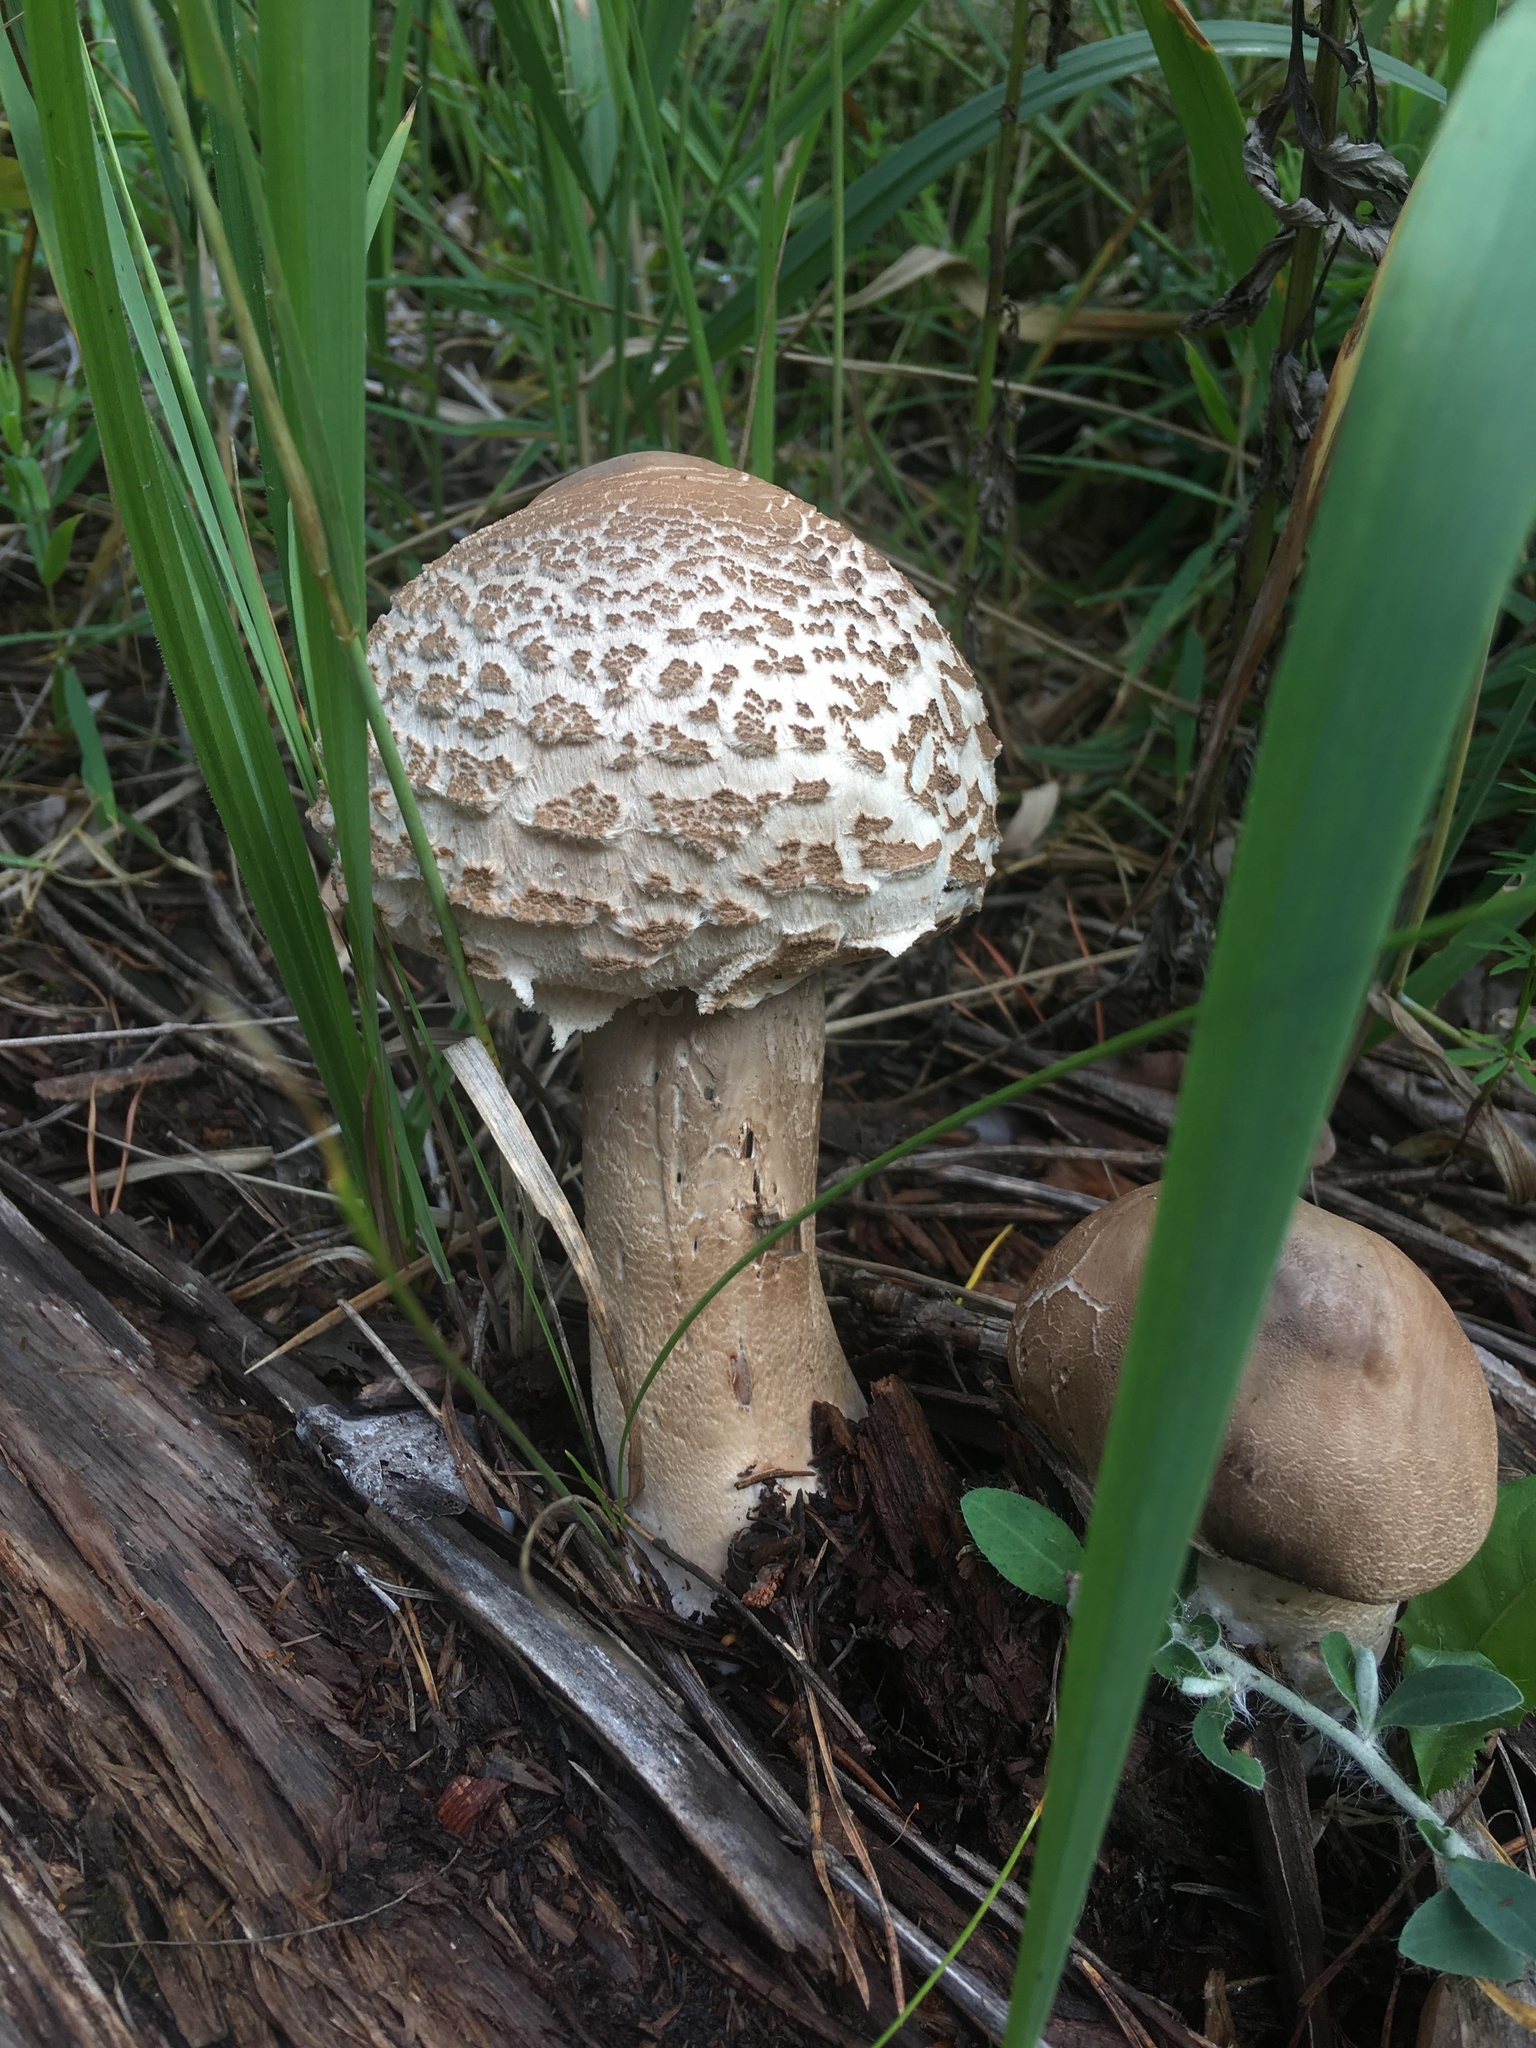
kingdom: Fungi
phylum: Basidiomycota
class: Agaricomycetes
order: Agaricales
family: Agaricaceae
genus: Macrolepiota
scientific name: Macrolepiota procera
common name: Parasol
